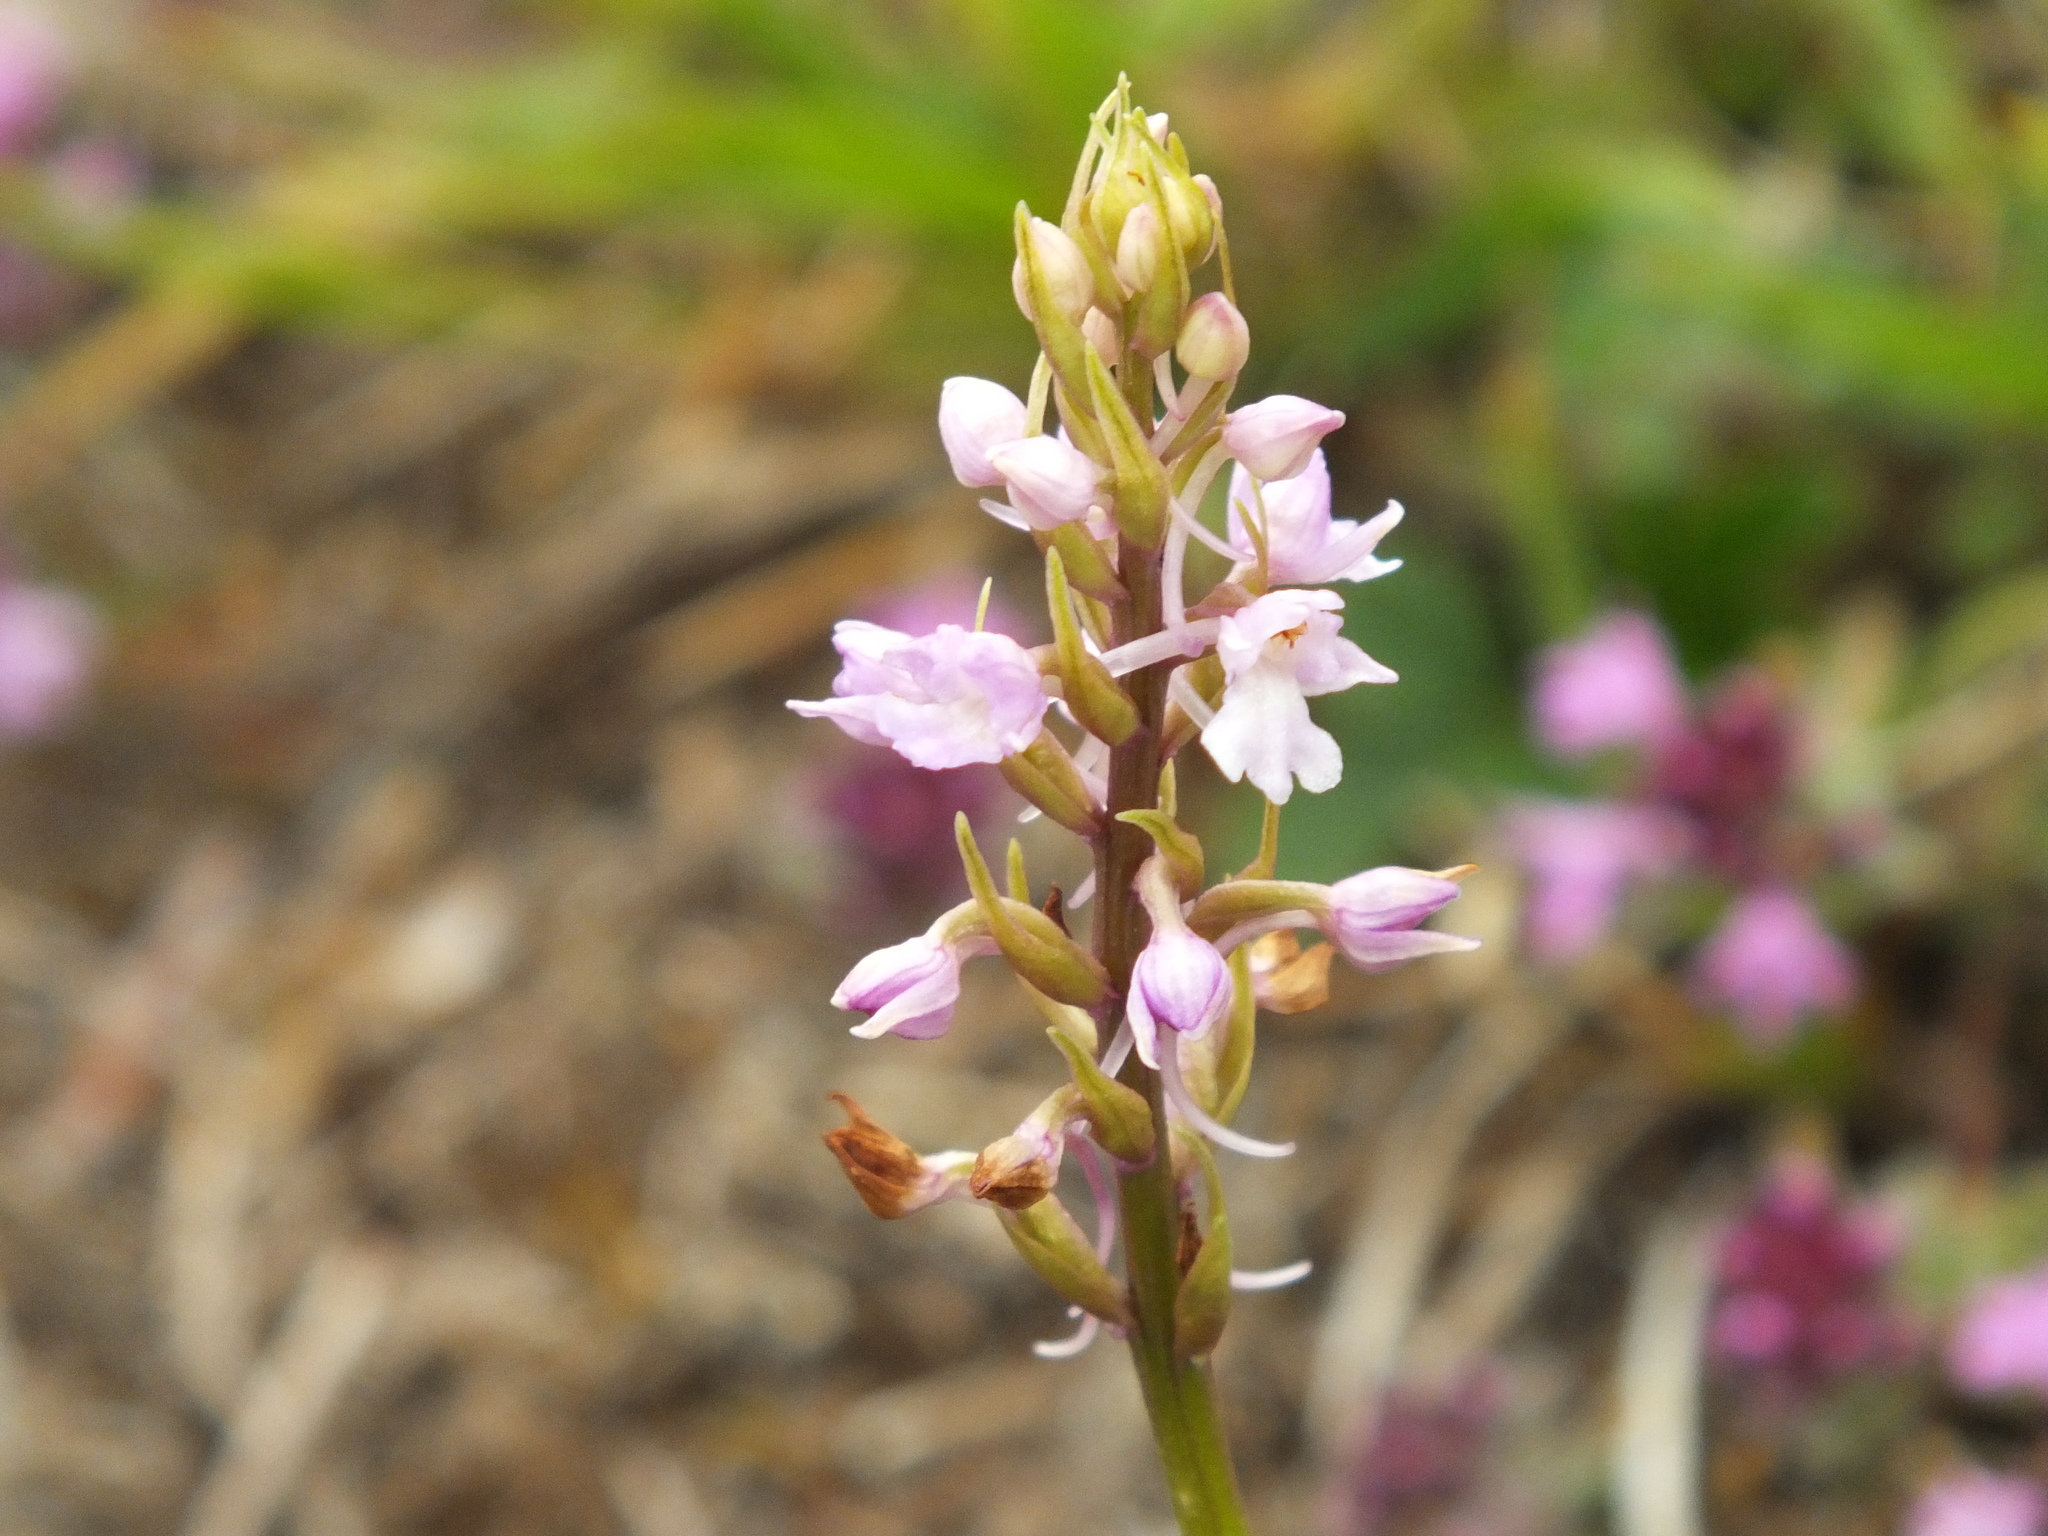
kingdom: Plantae
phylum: Tracheophyta
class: Liliopsida
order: Asparagales
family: Orchidaceae
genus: Gymnadenia
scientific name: Gymnadenia conopsea
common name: Fragrant orchid
